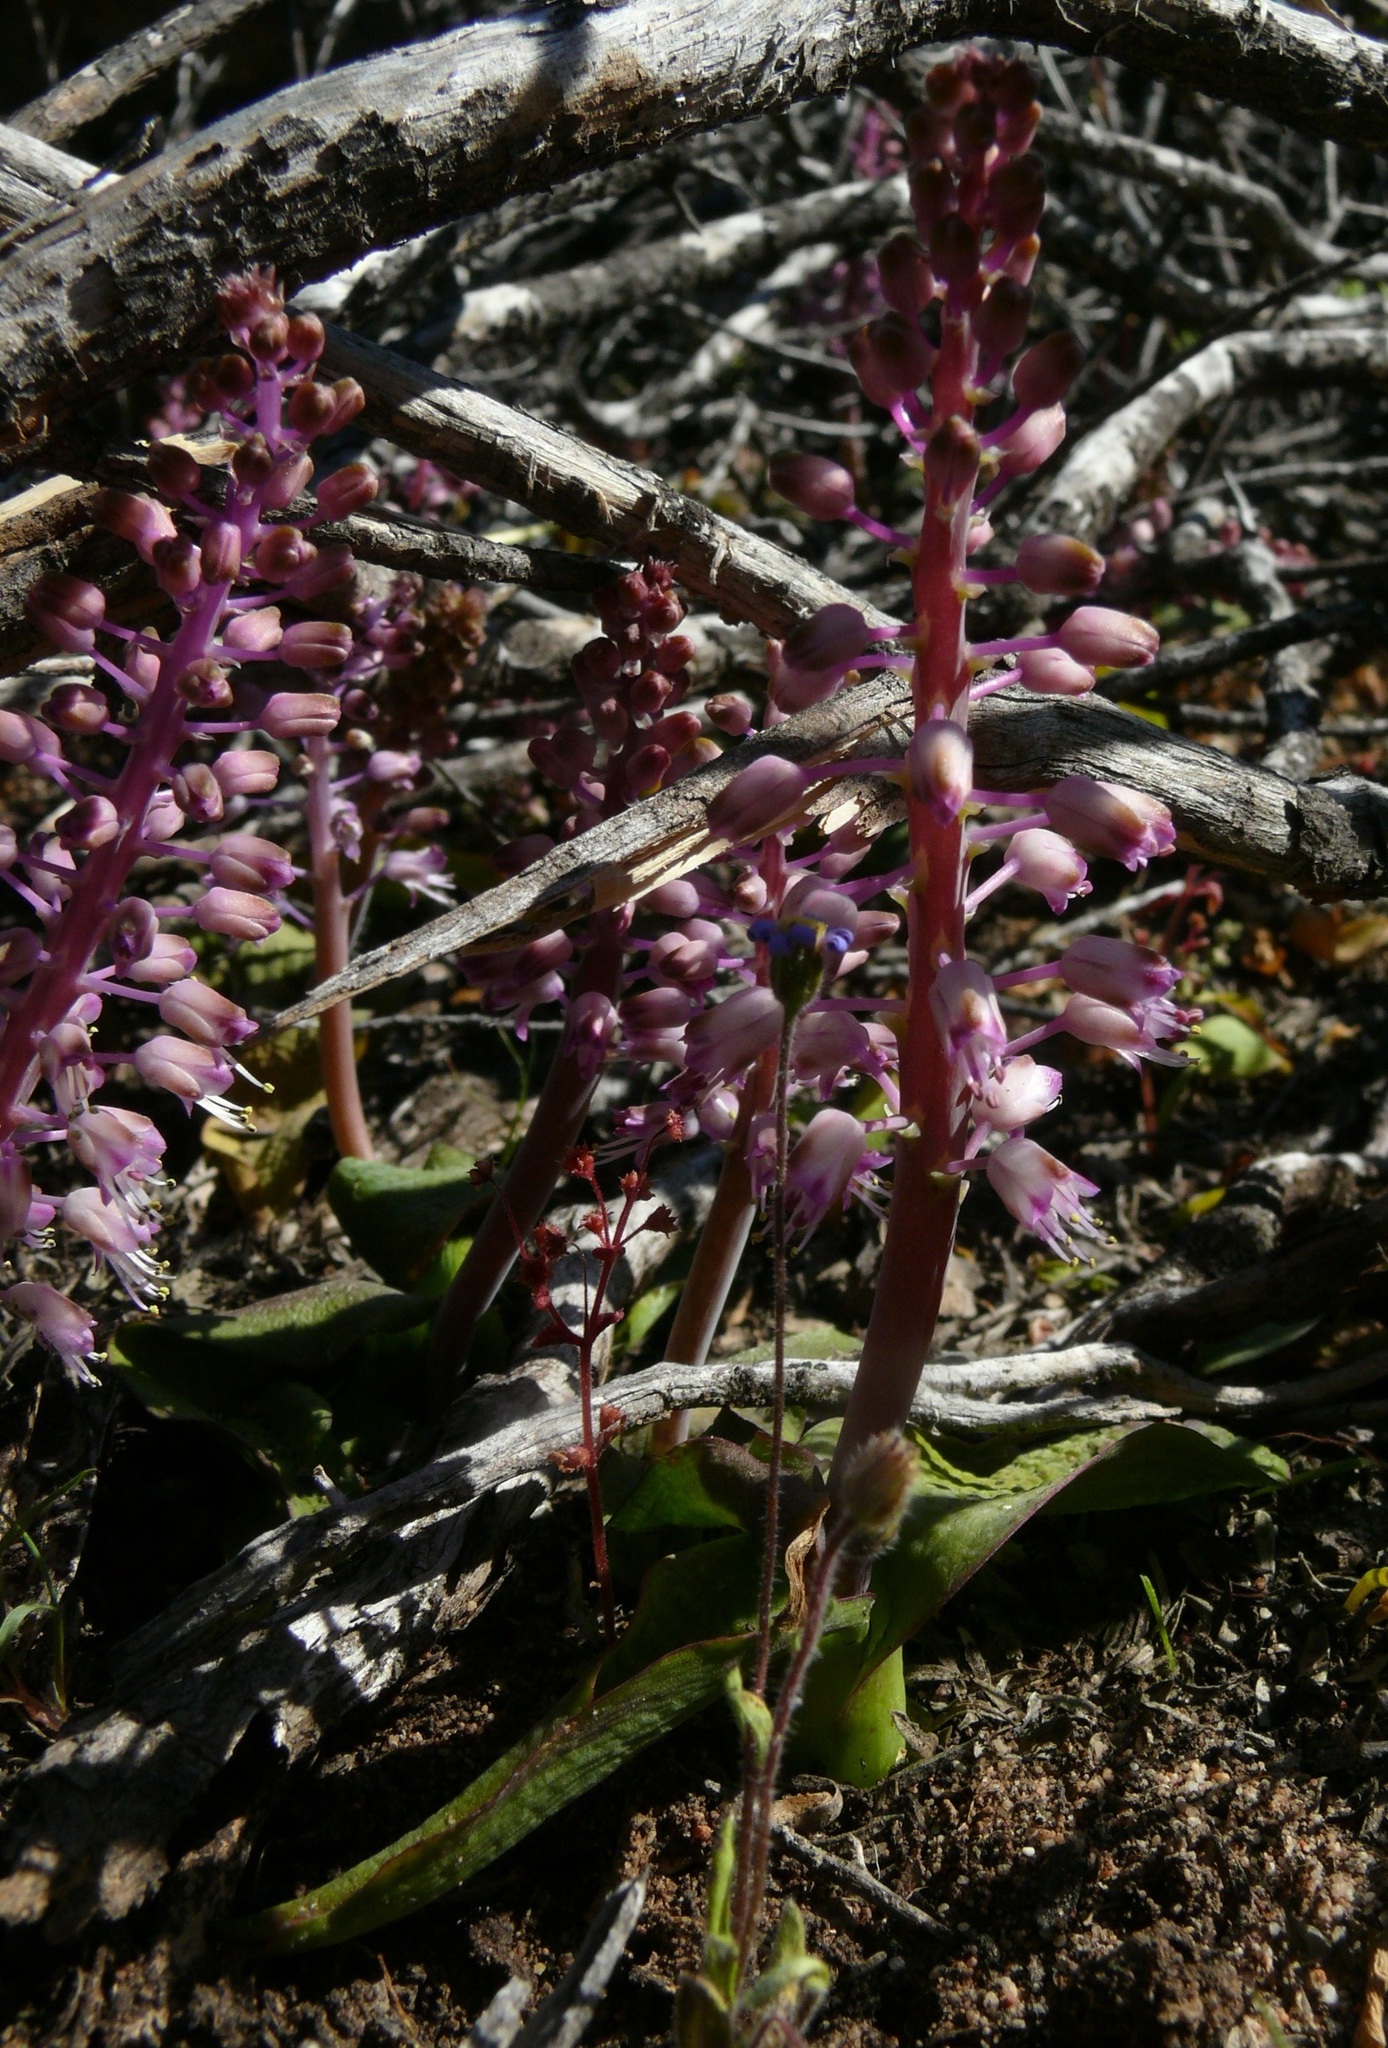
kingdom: Plantae
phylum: Tracheophyta
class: Liliopsida
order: Asparagales
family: Asparagaceae
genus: Lachenalia
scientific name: Lachenalia pallida
